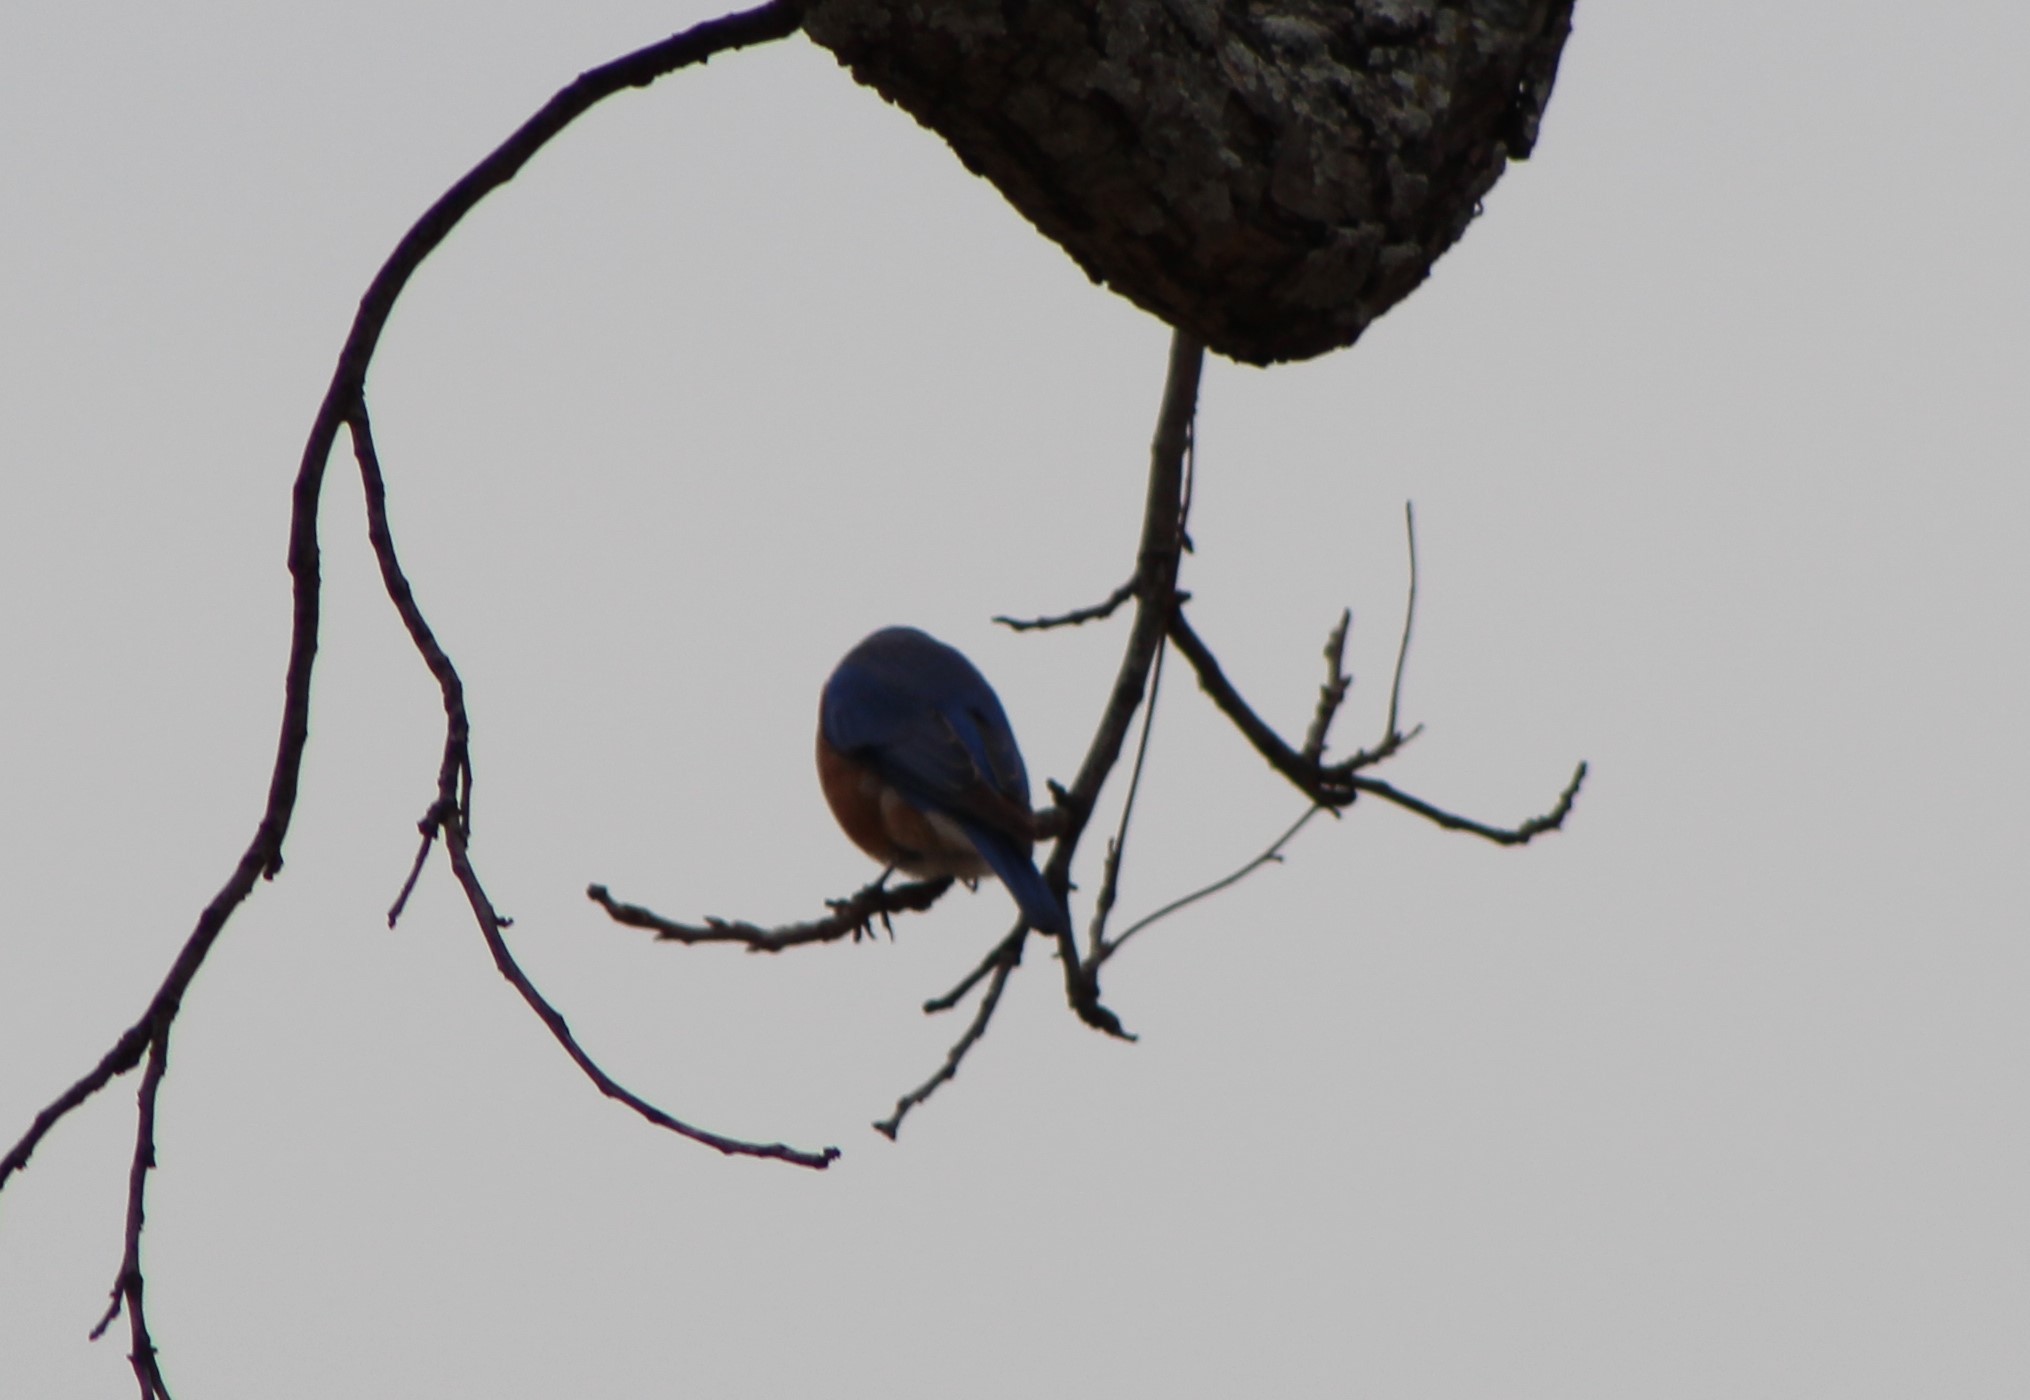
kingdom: Animalia
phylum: Chordata
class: Aves
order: Passeriformes
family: Turdidae
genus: Sialia
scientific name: Sialia sialis
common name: Eastern bluebird
